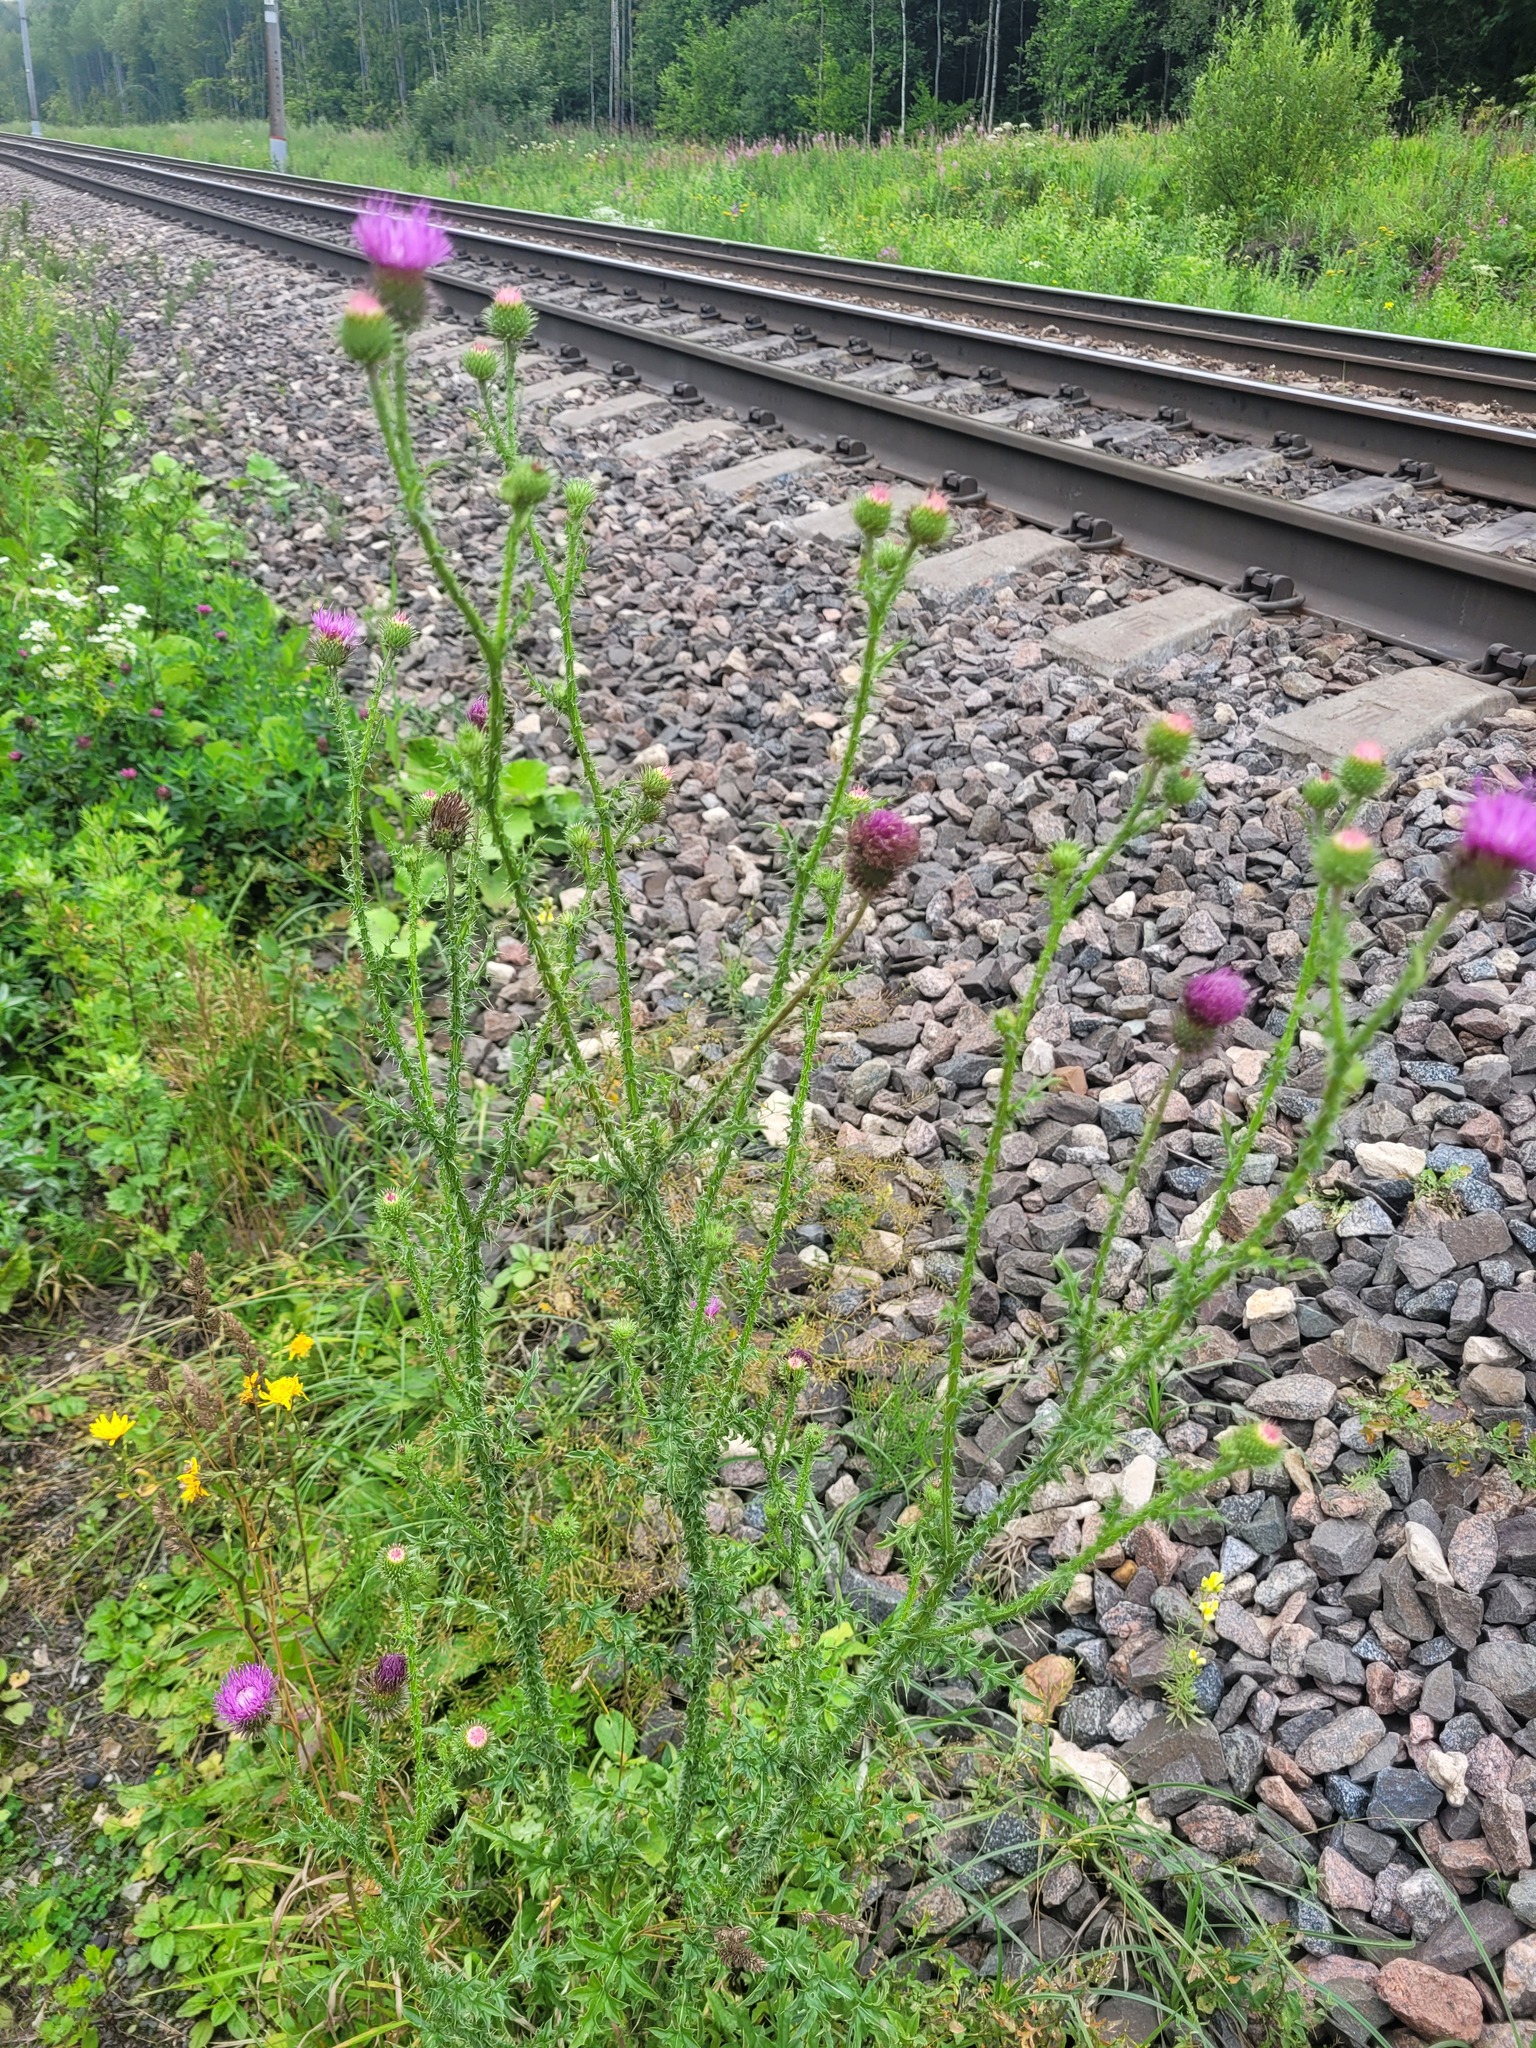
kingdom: Plantae
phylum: Tracheophyta
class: Magnoliopsida
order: Asterales
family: Asteraceae
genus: Carduus
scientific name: Carduus acanthoides
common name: Plumeless thistle
